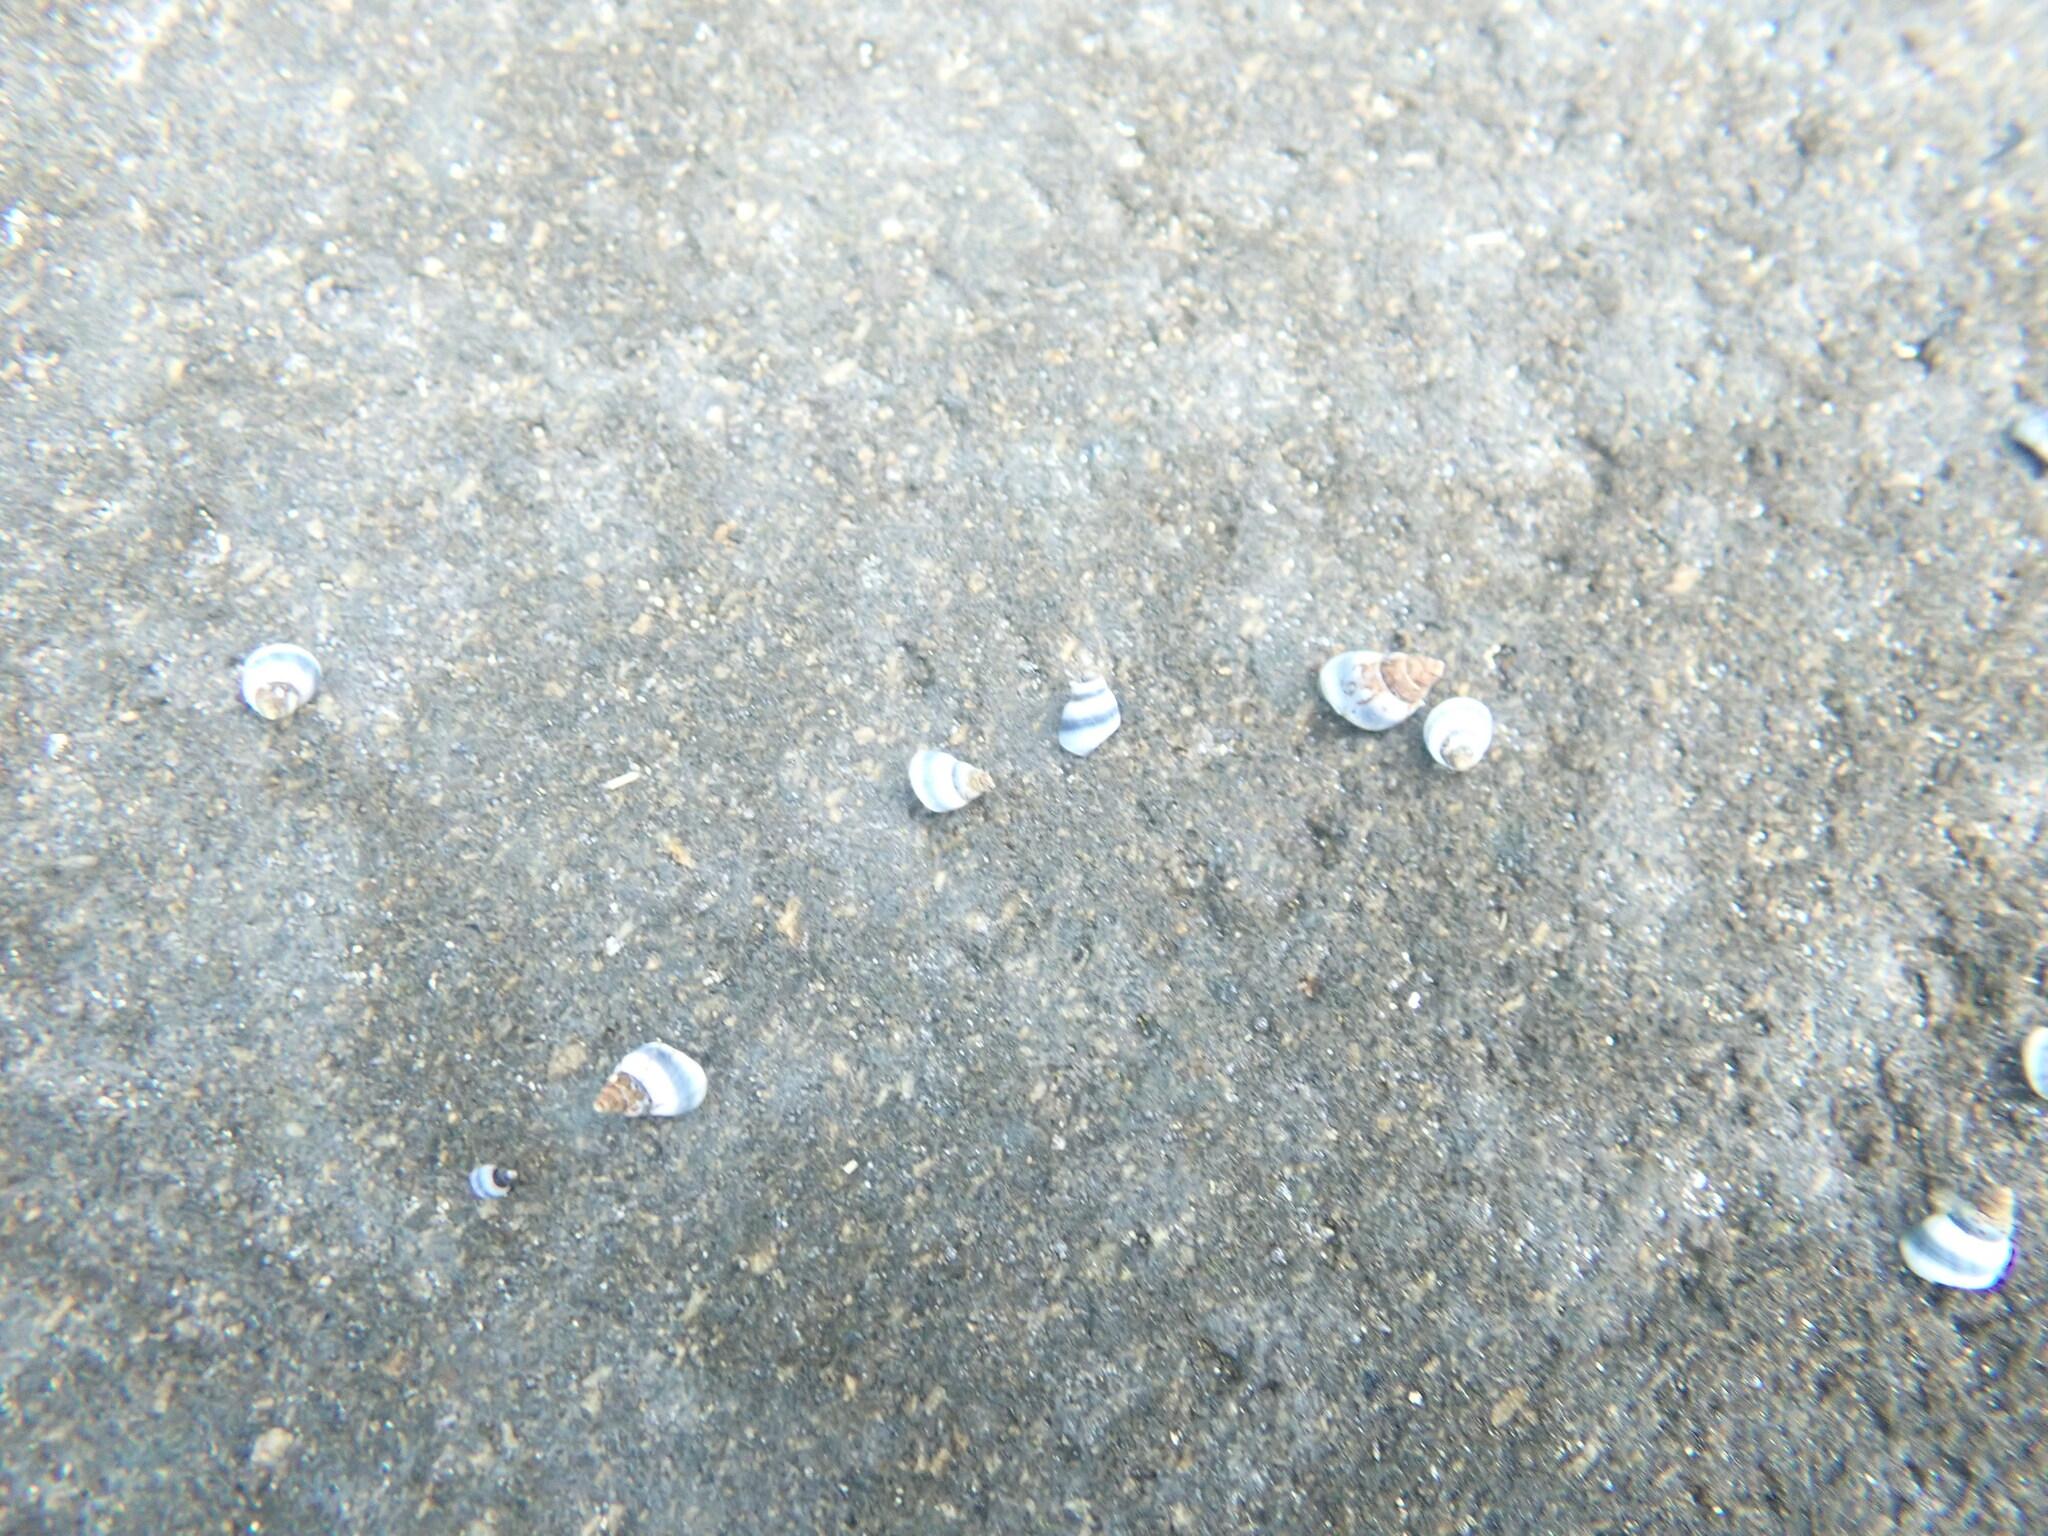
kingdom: Animalia
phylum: Mollusca
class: Gastropoda
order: Littorinimorpha
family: Littorinidae
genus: Austrolittorina
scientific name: Austrolittorina antipodum
